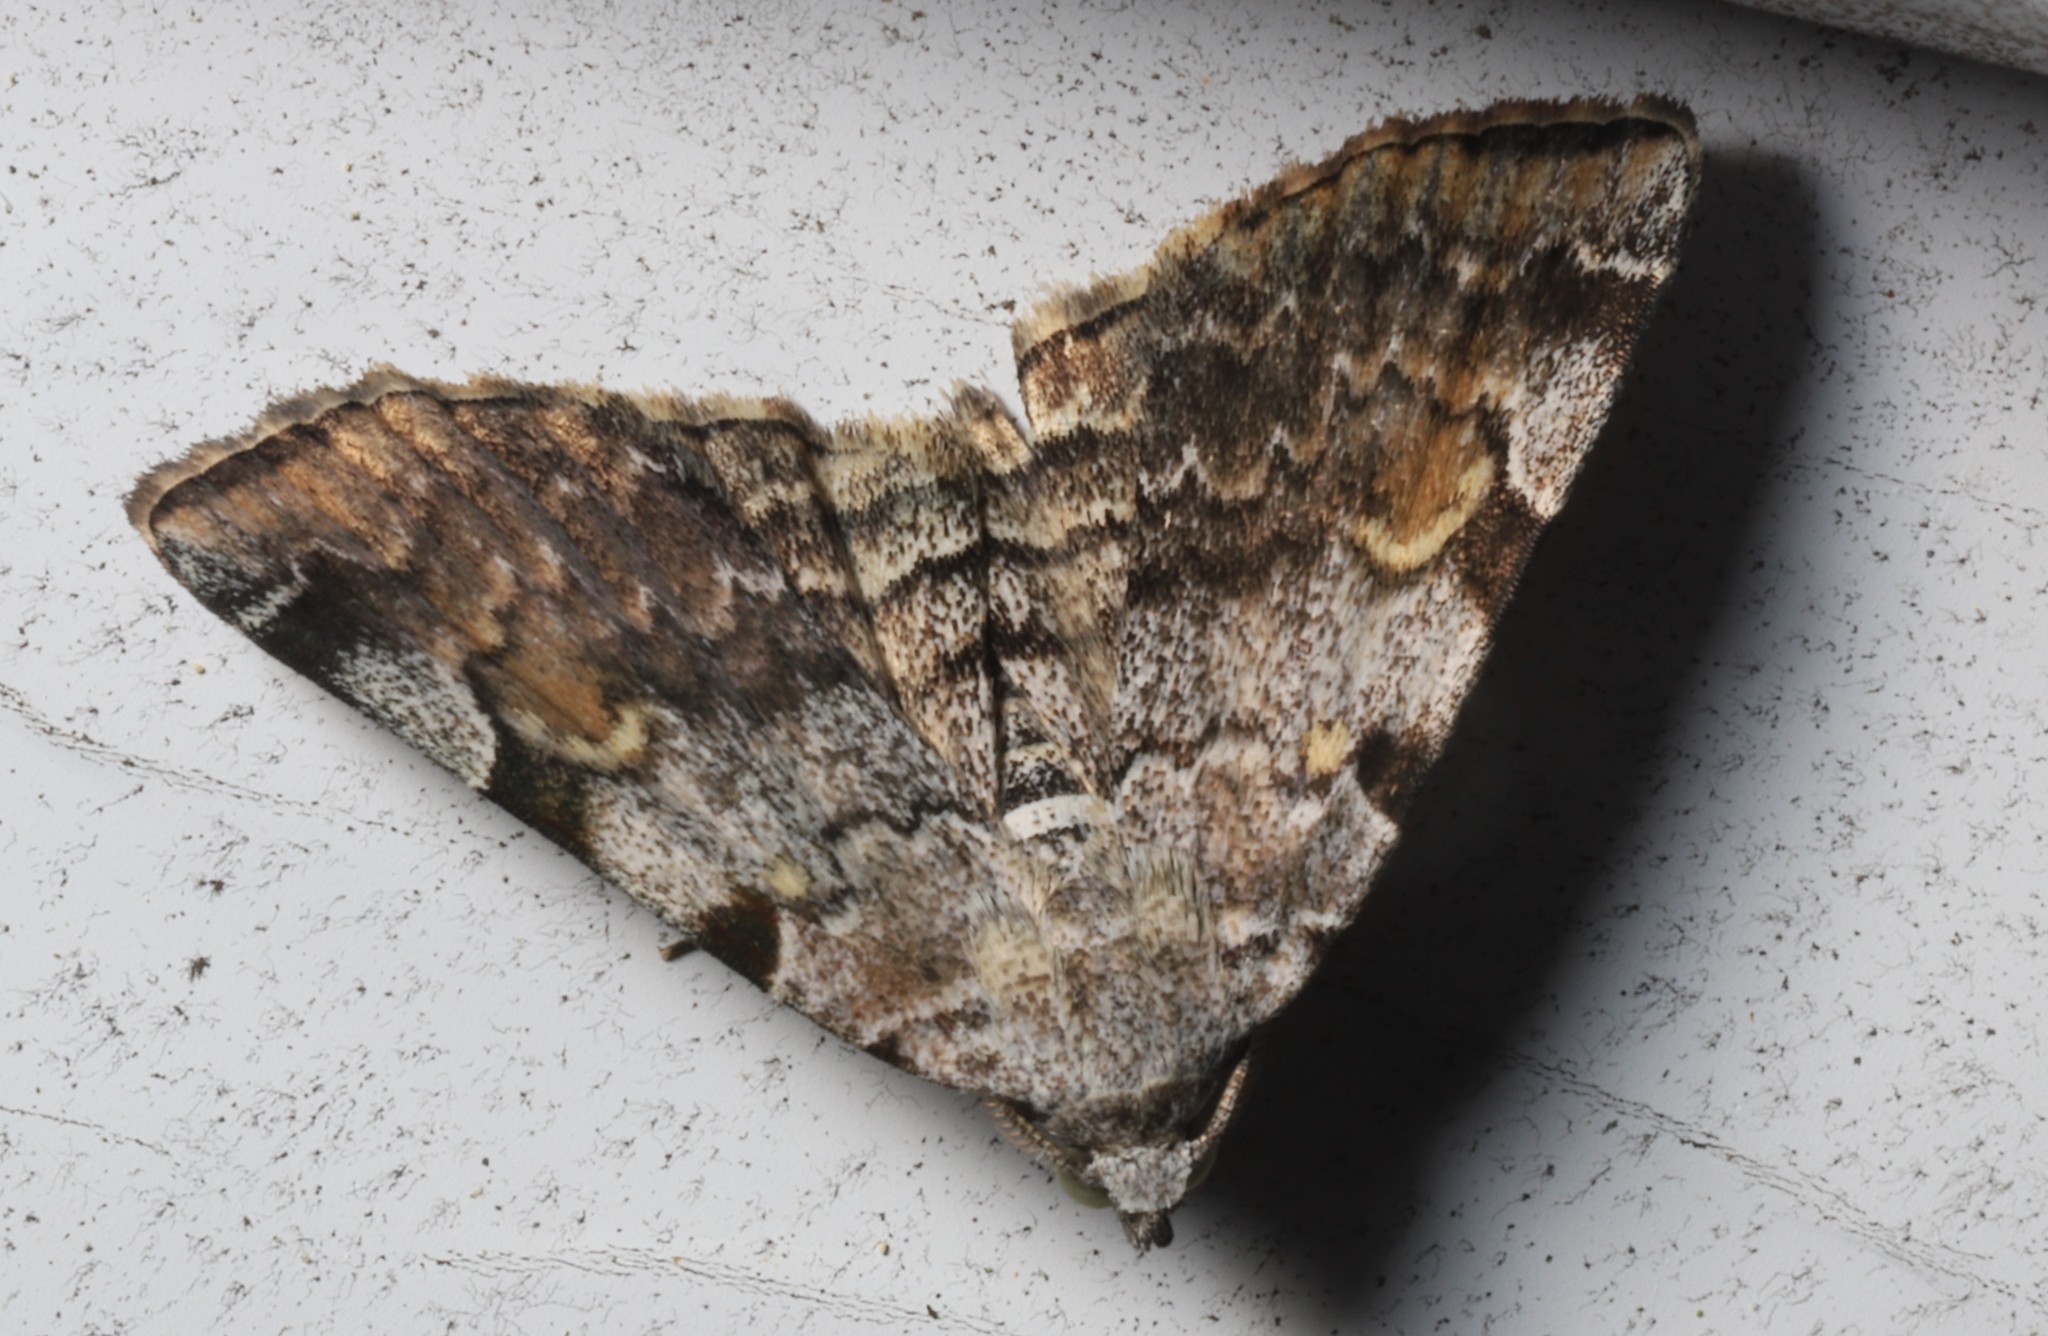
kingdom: Animalia
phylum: Arthropoda
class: Insecta
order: Lepidoptera
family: Erebidae
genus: Idia
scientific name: Idia americalis
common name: American idia moth
